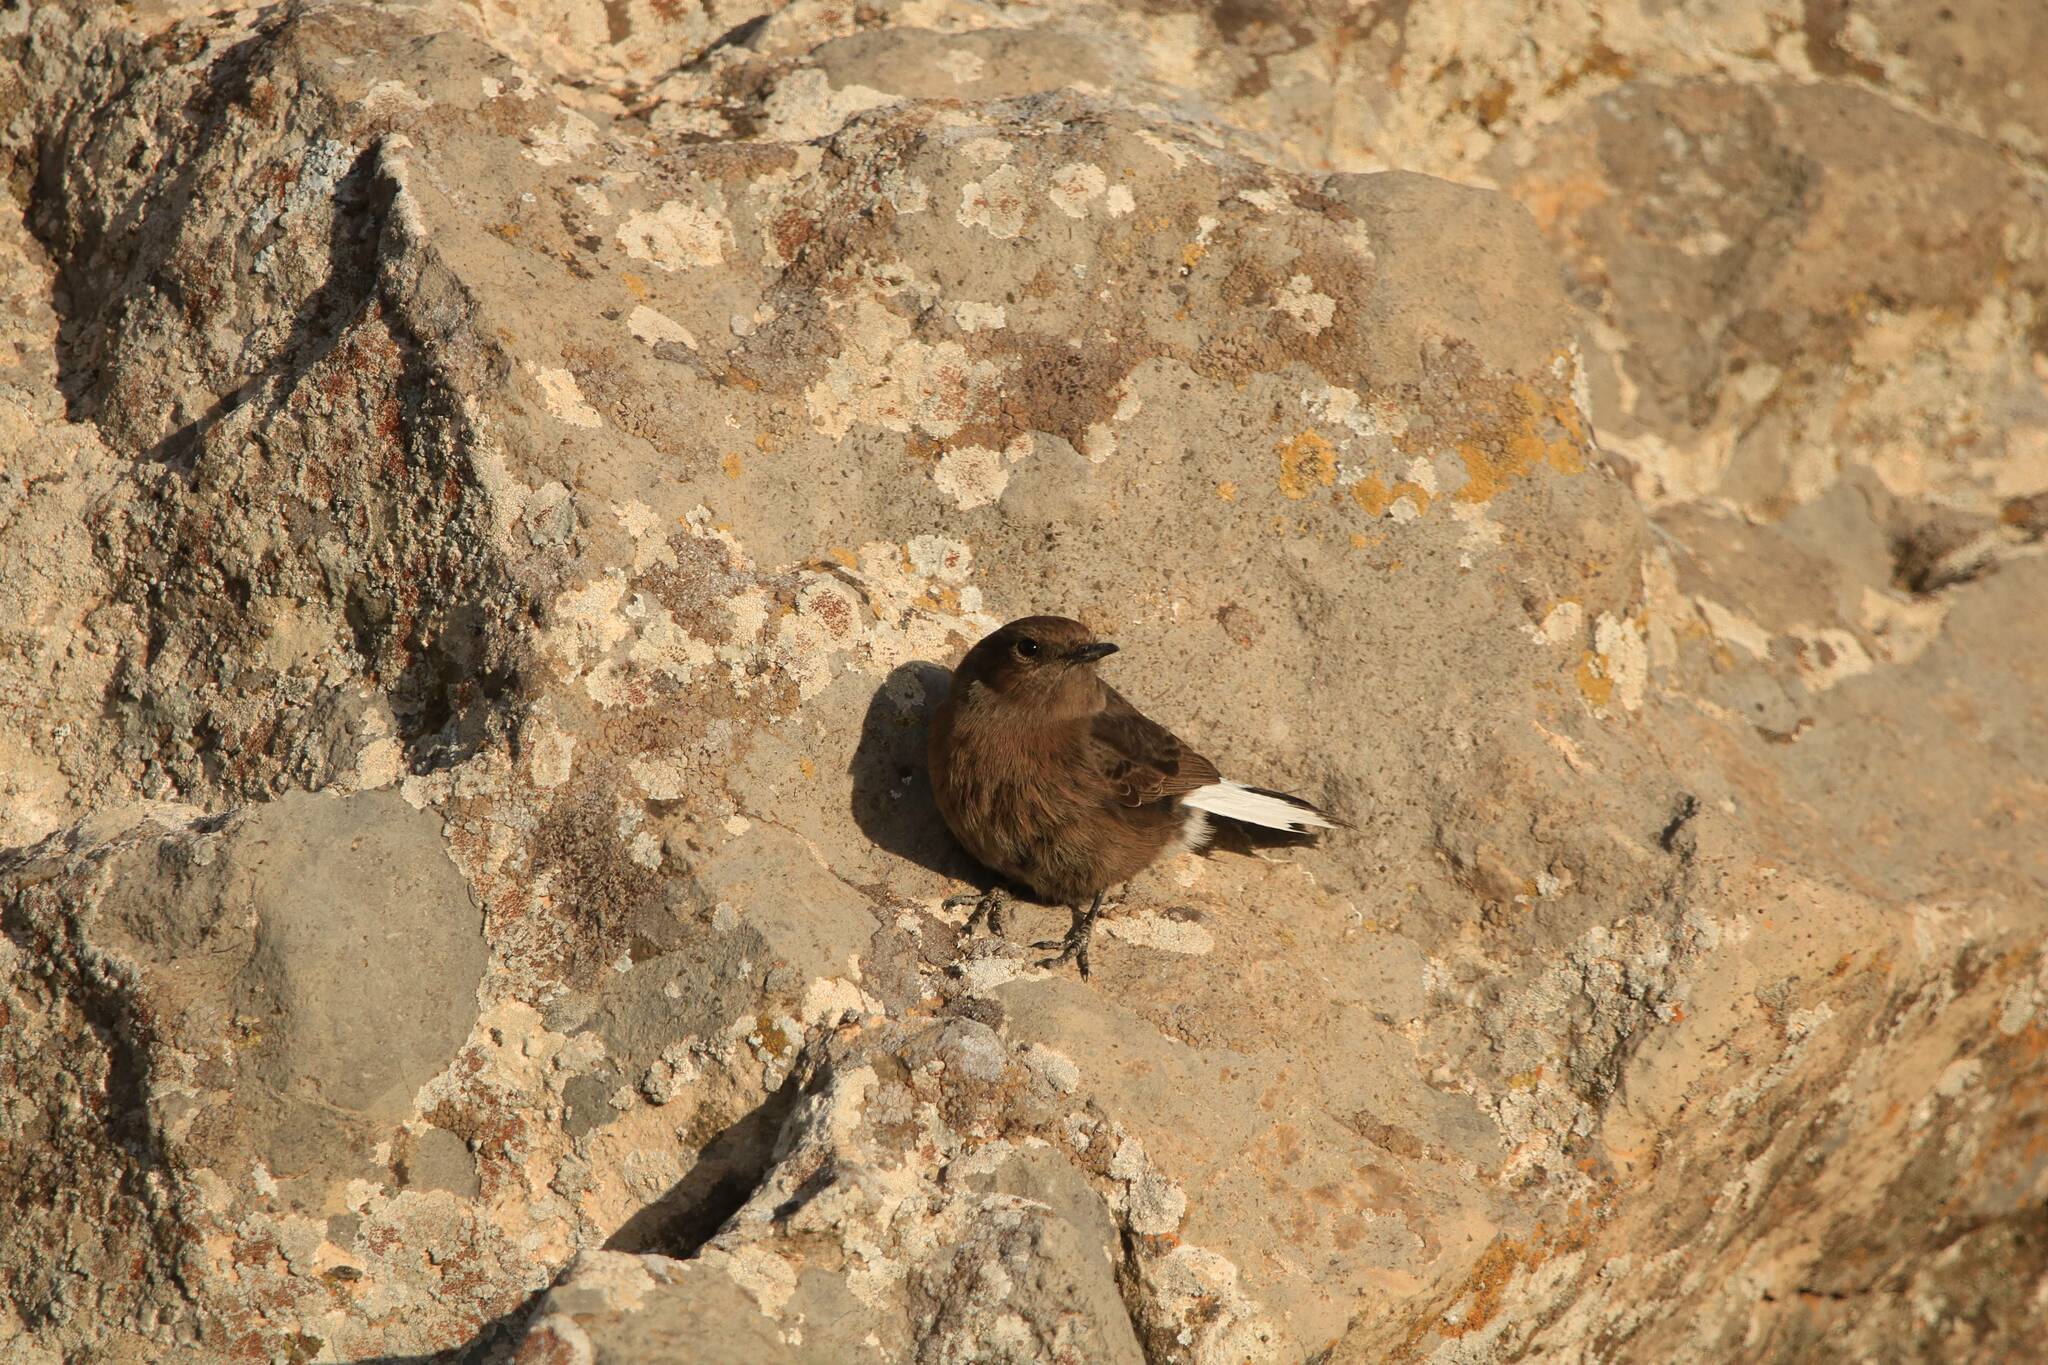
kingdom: Animalia
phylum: Chordata
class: Aves
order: Passeriformes
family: Muscicapidae
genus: Oenanthe
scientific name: Oenanthe leucura
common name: Black wheatear
